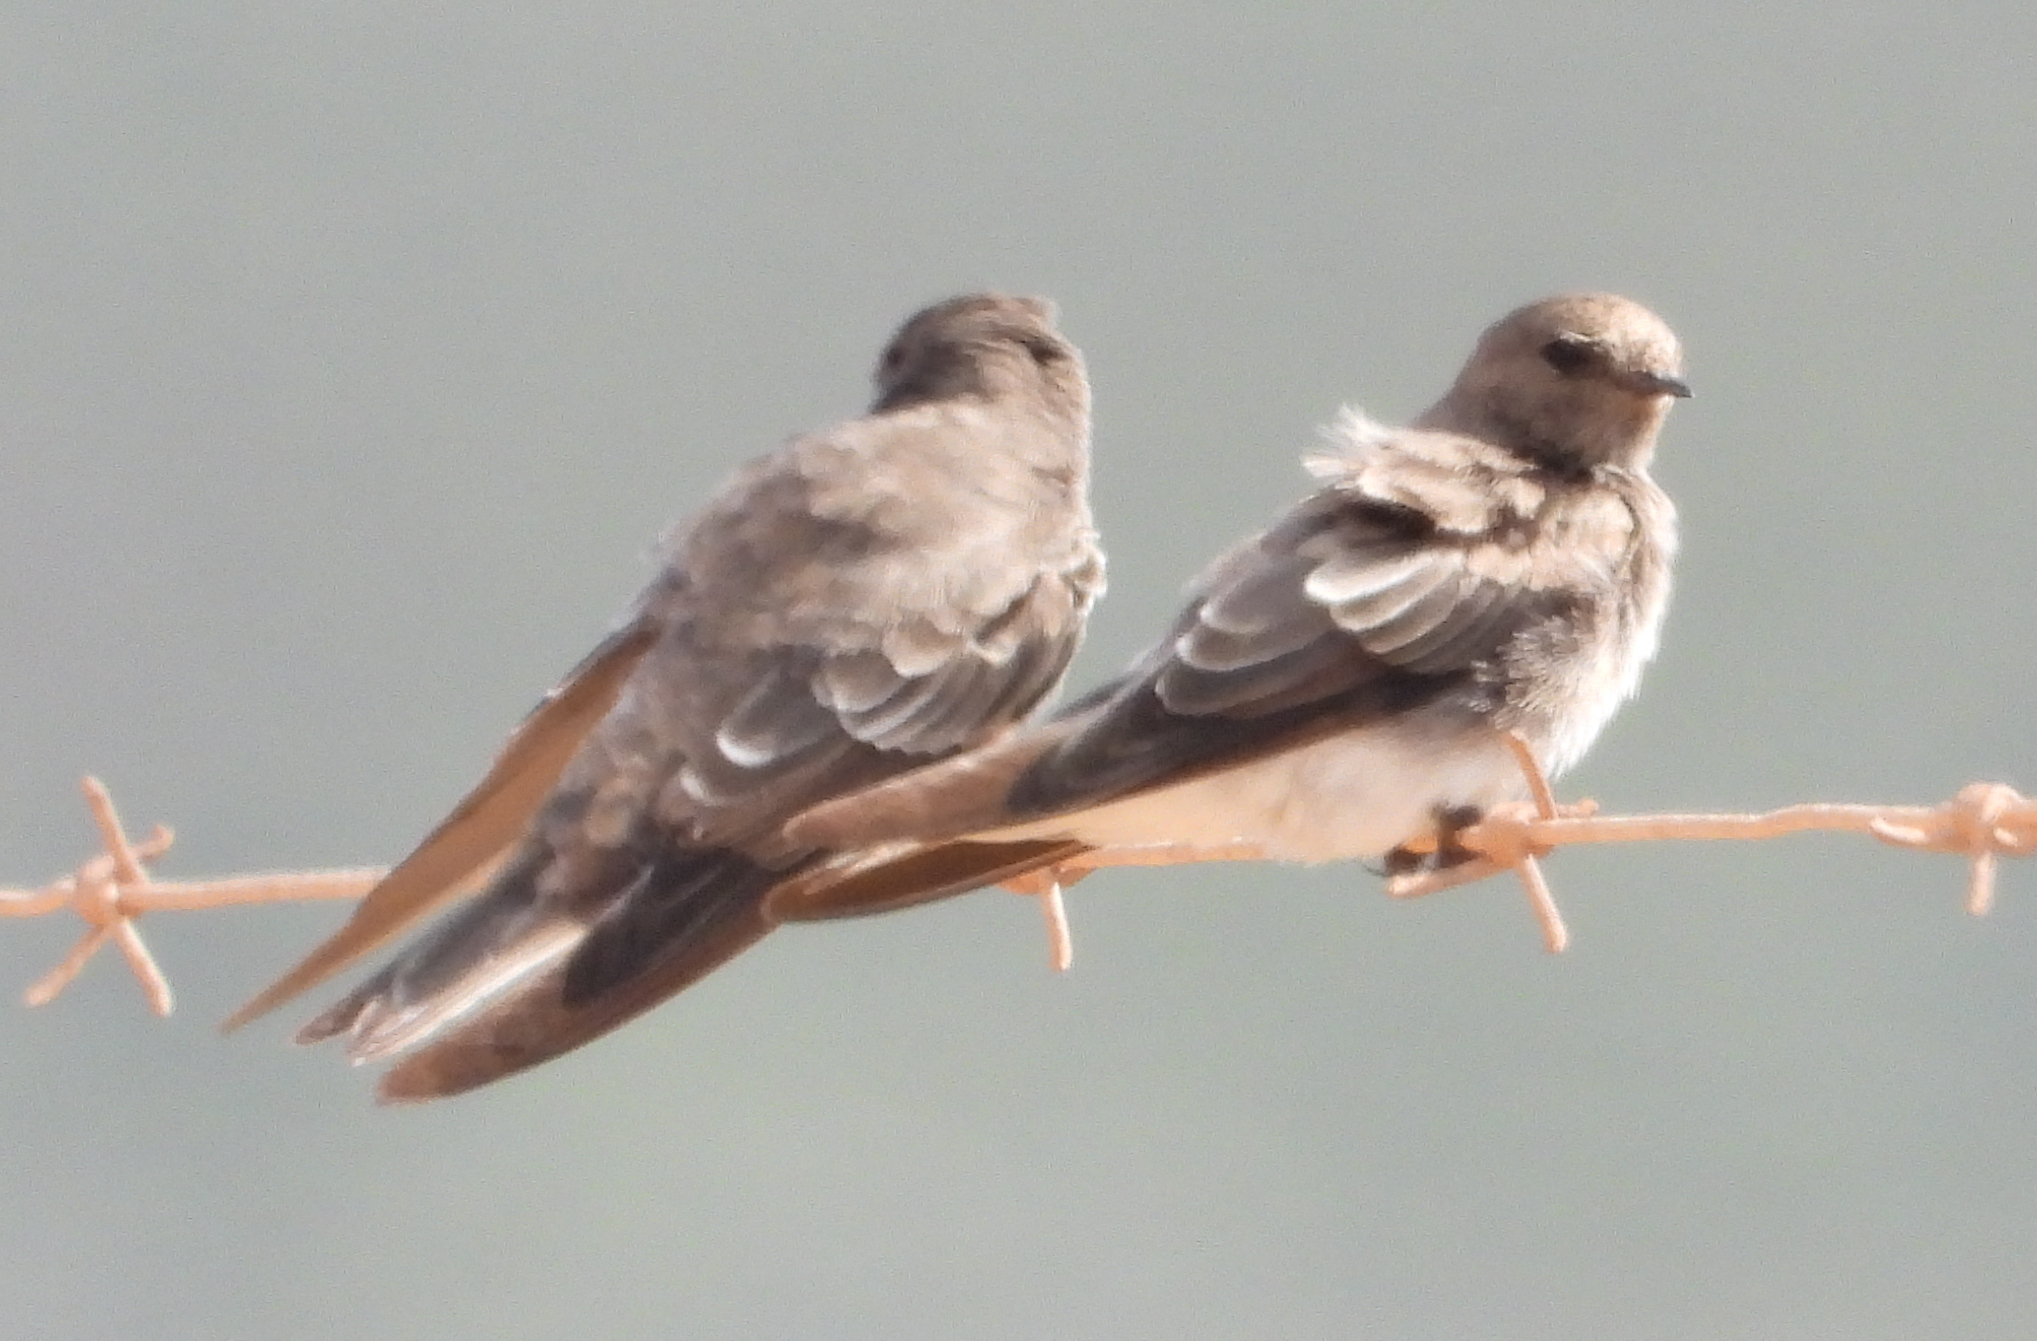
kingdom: Animalia
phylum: Chordata
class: Aves
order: Passeriformes
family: Hirundinidae
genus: Riparia
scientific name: Riparia paludicola
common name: Brown-throated martin
